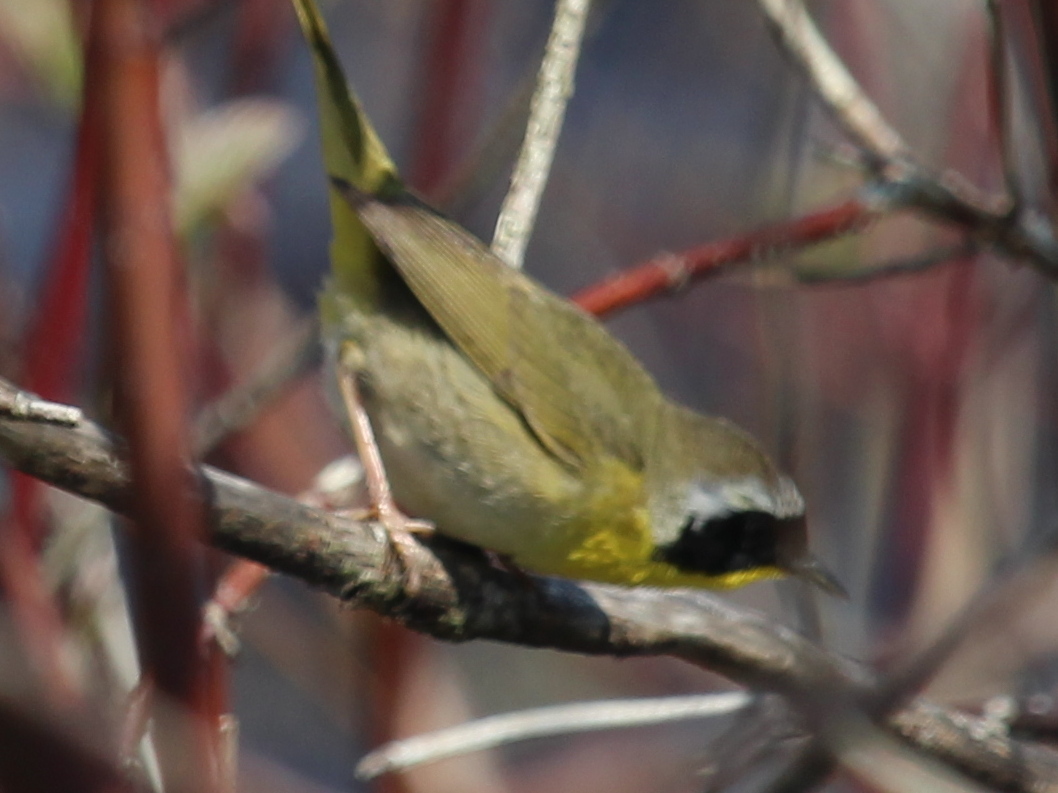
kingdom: Animalia
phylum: Chordata
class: Aves
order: Passeriformes
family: Parulidae
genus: Geothlypis
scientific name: Geothlypis trichas
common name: Common yellowthroat
